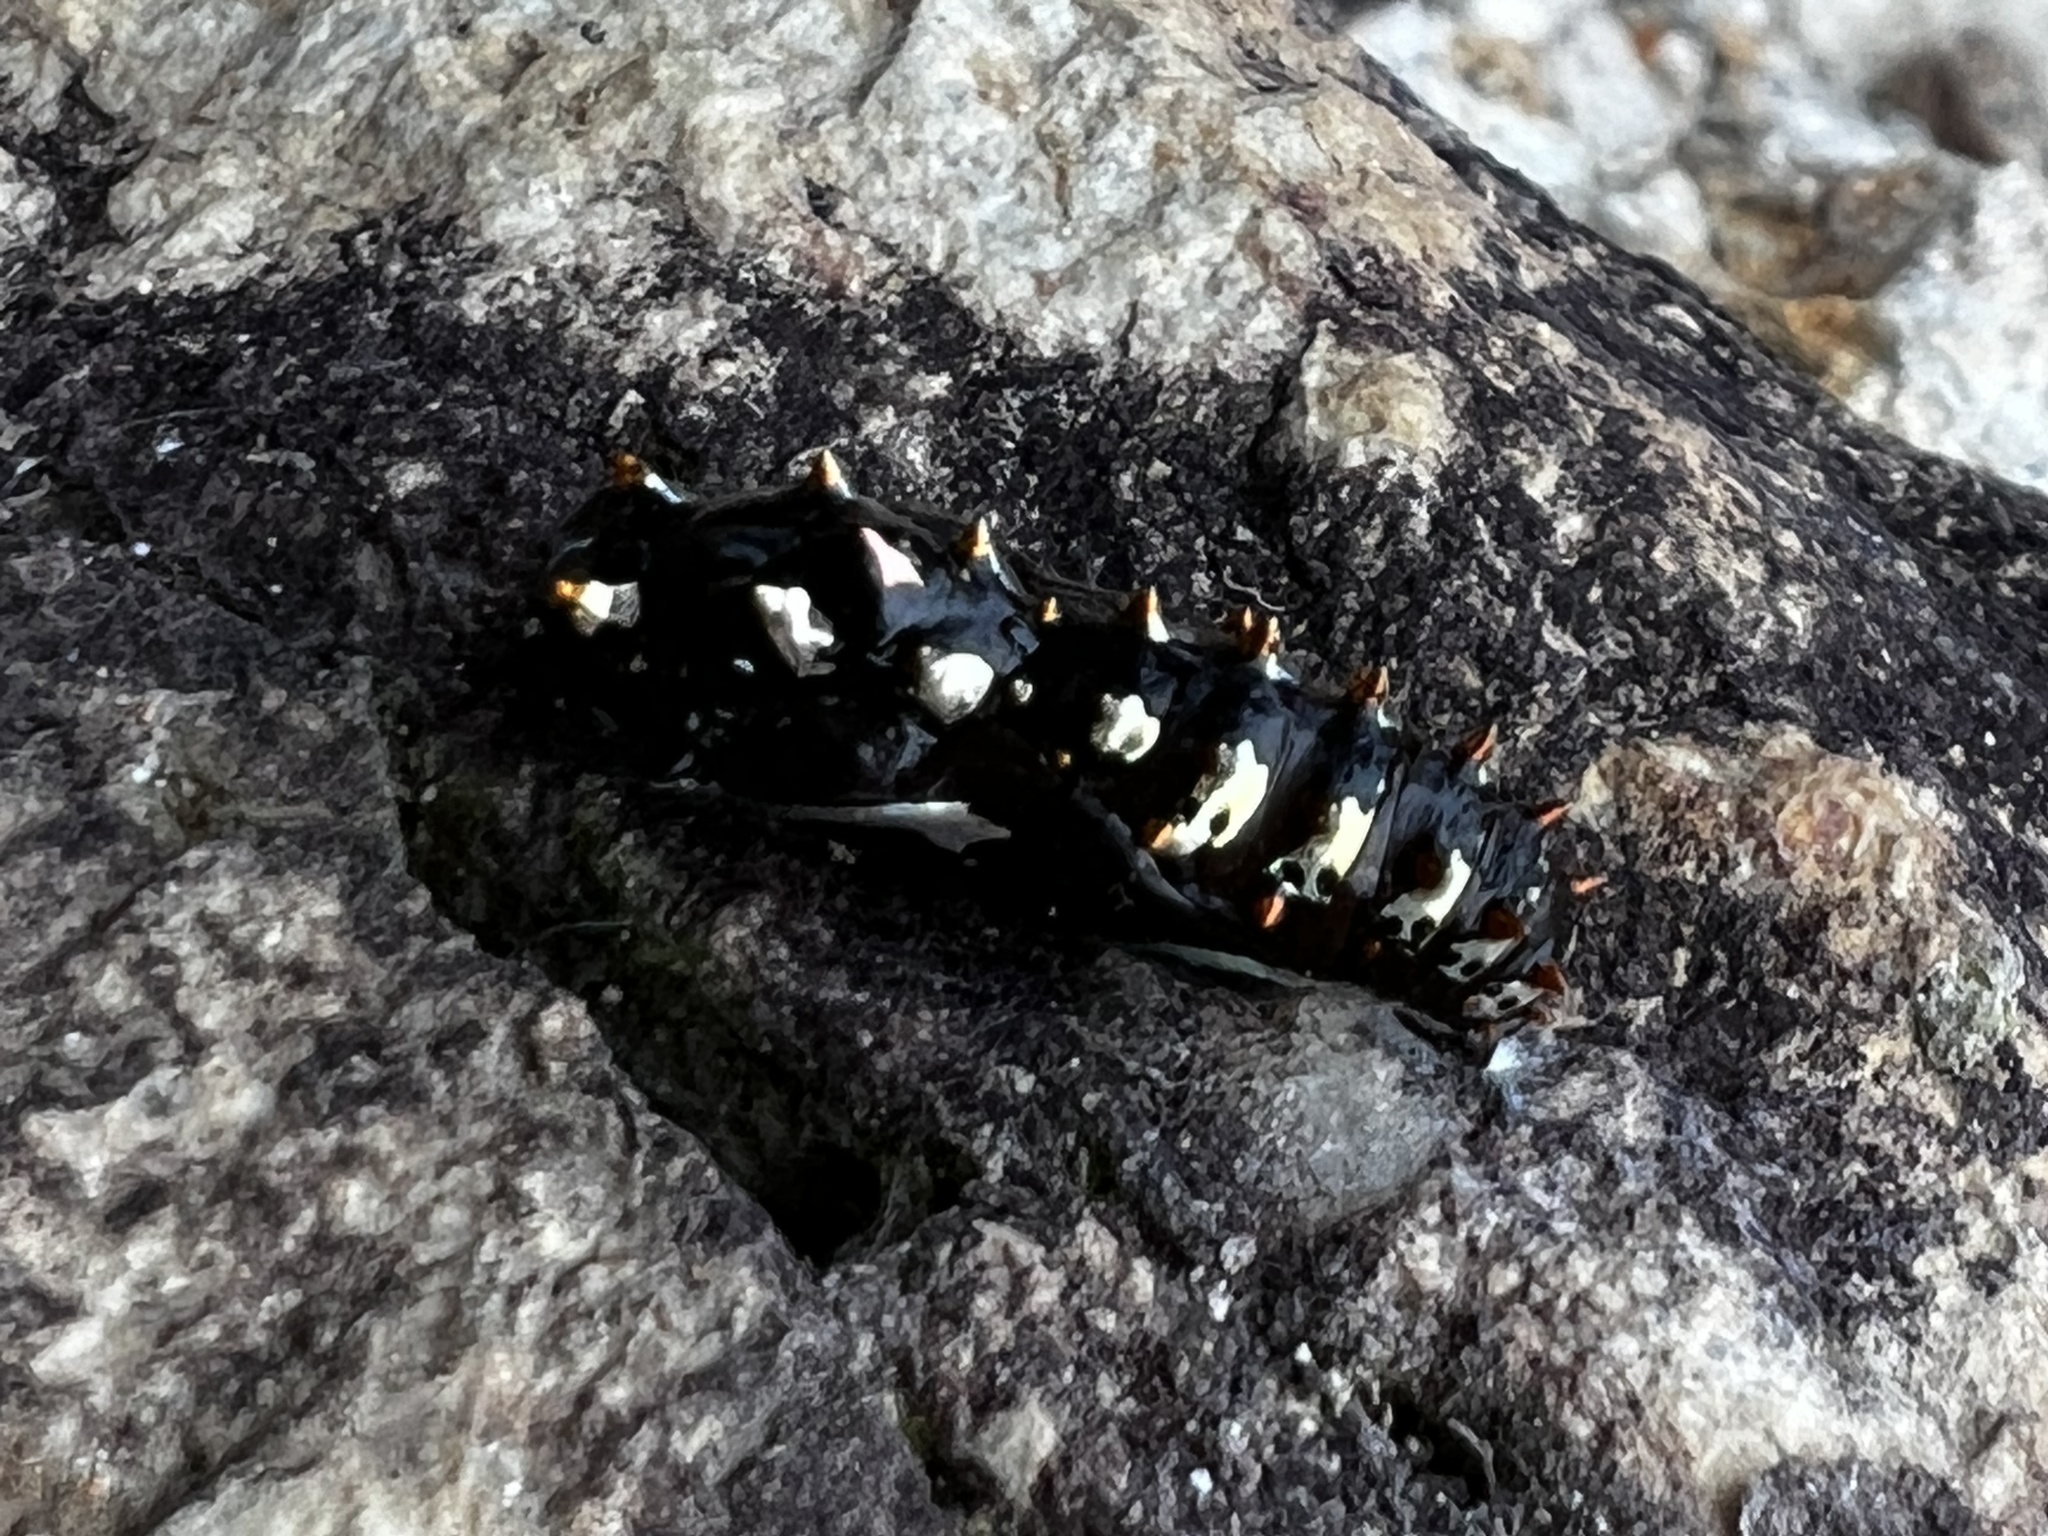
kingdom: Animalia
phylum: Arthropoda
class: Insecta
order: Lepidoptera
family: Nymphalidae
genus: Euptoieta
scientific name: Euptoieta hegesia
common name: Mexican fritillary
